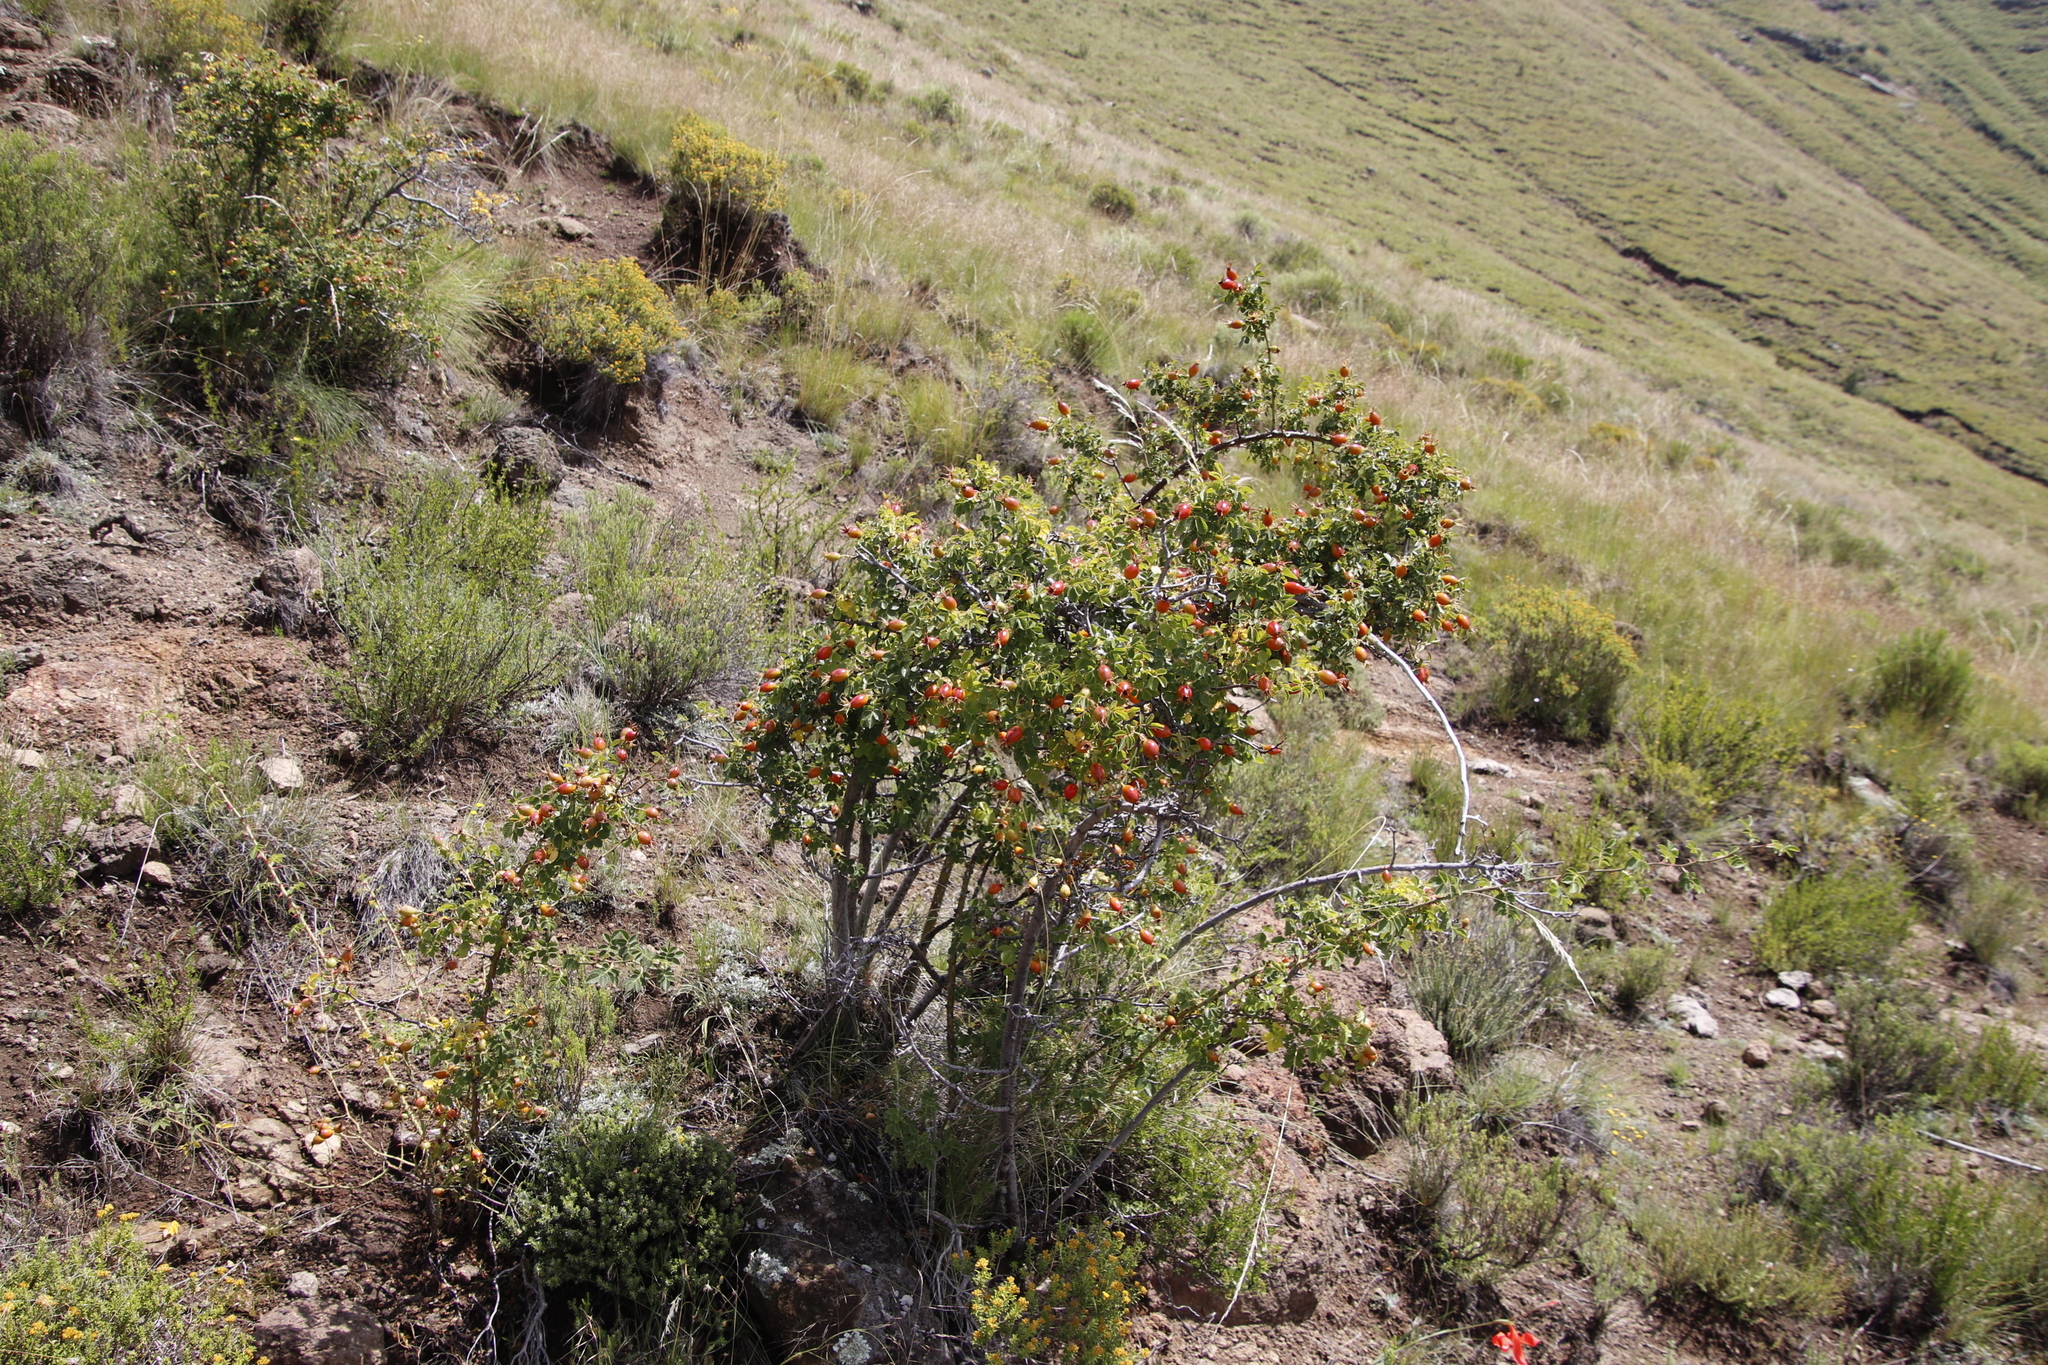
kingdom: Plantae
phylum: Tracheophyta
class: Magnoliopsida
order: Rosales
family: Rosaceae
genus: Rosa
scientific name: Rosa rubiginosa
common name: Sweet-briar
